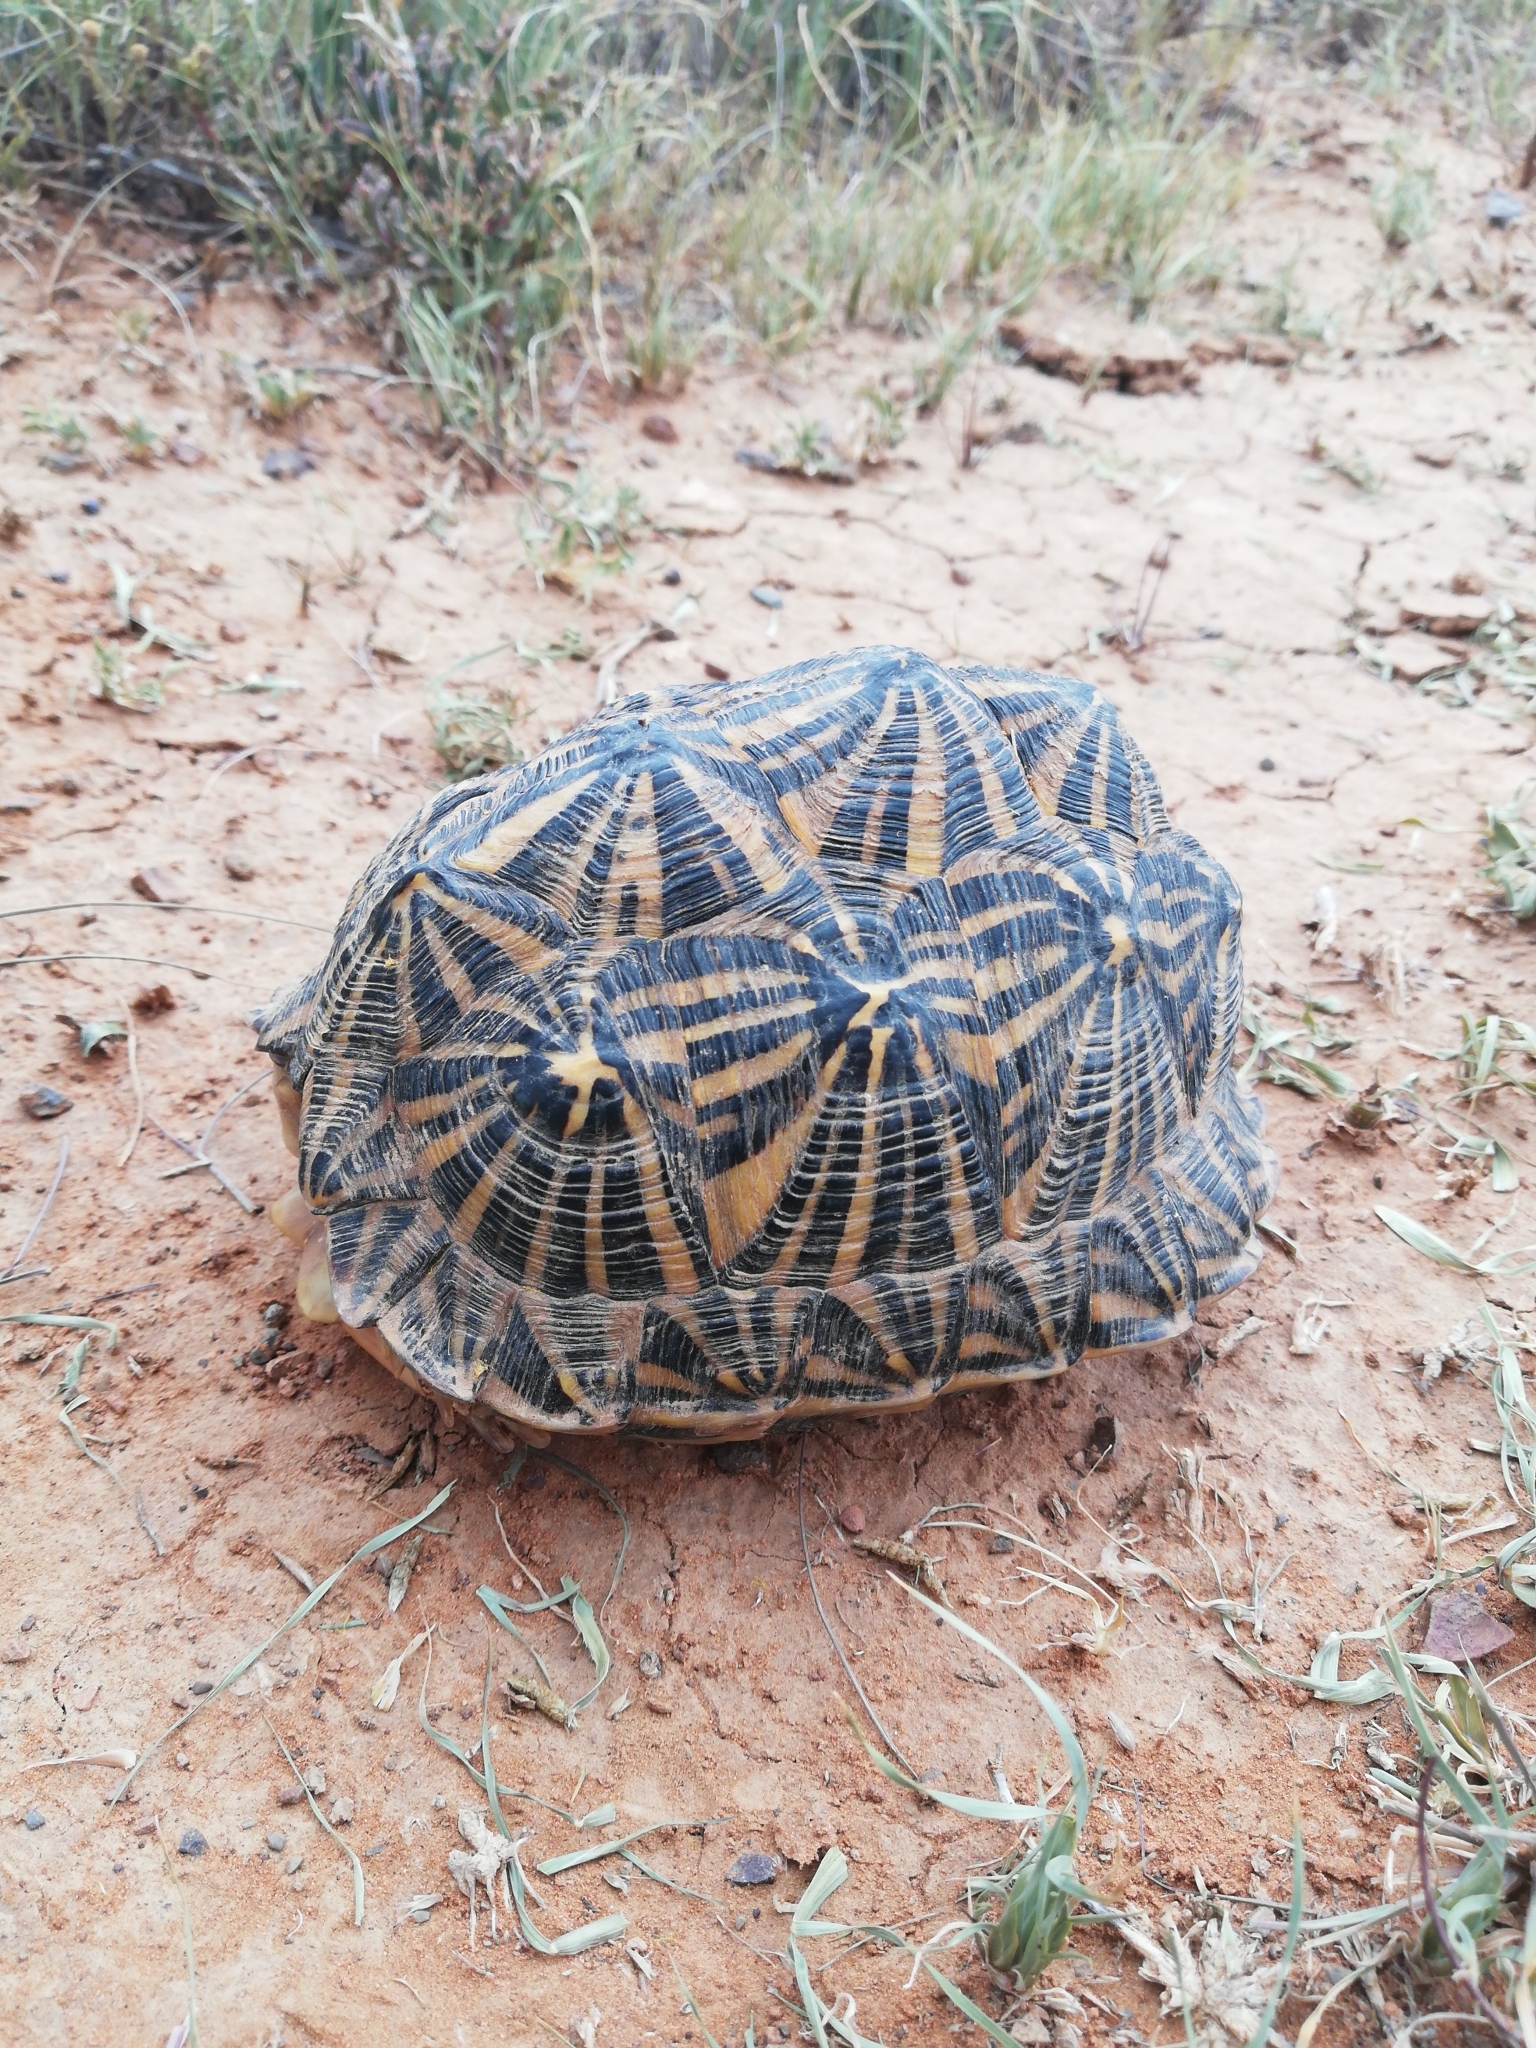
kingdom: Animalia
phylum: Chordata
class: Testudines
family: Testudinidae
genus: Psammobates
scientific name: Psammobates tentorius
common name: Tent tortoise
